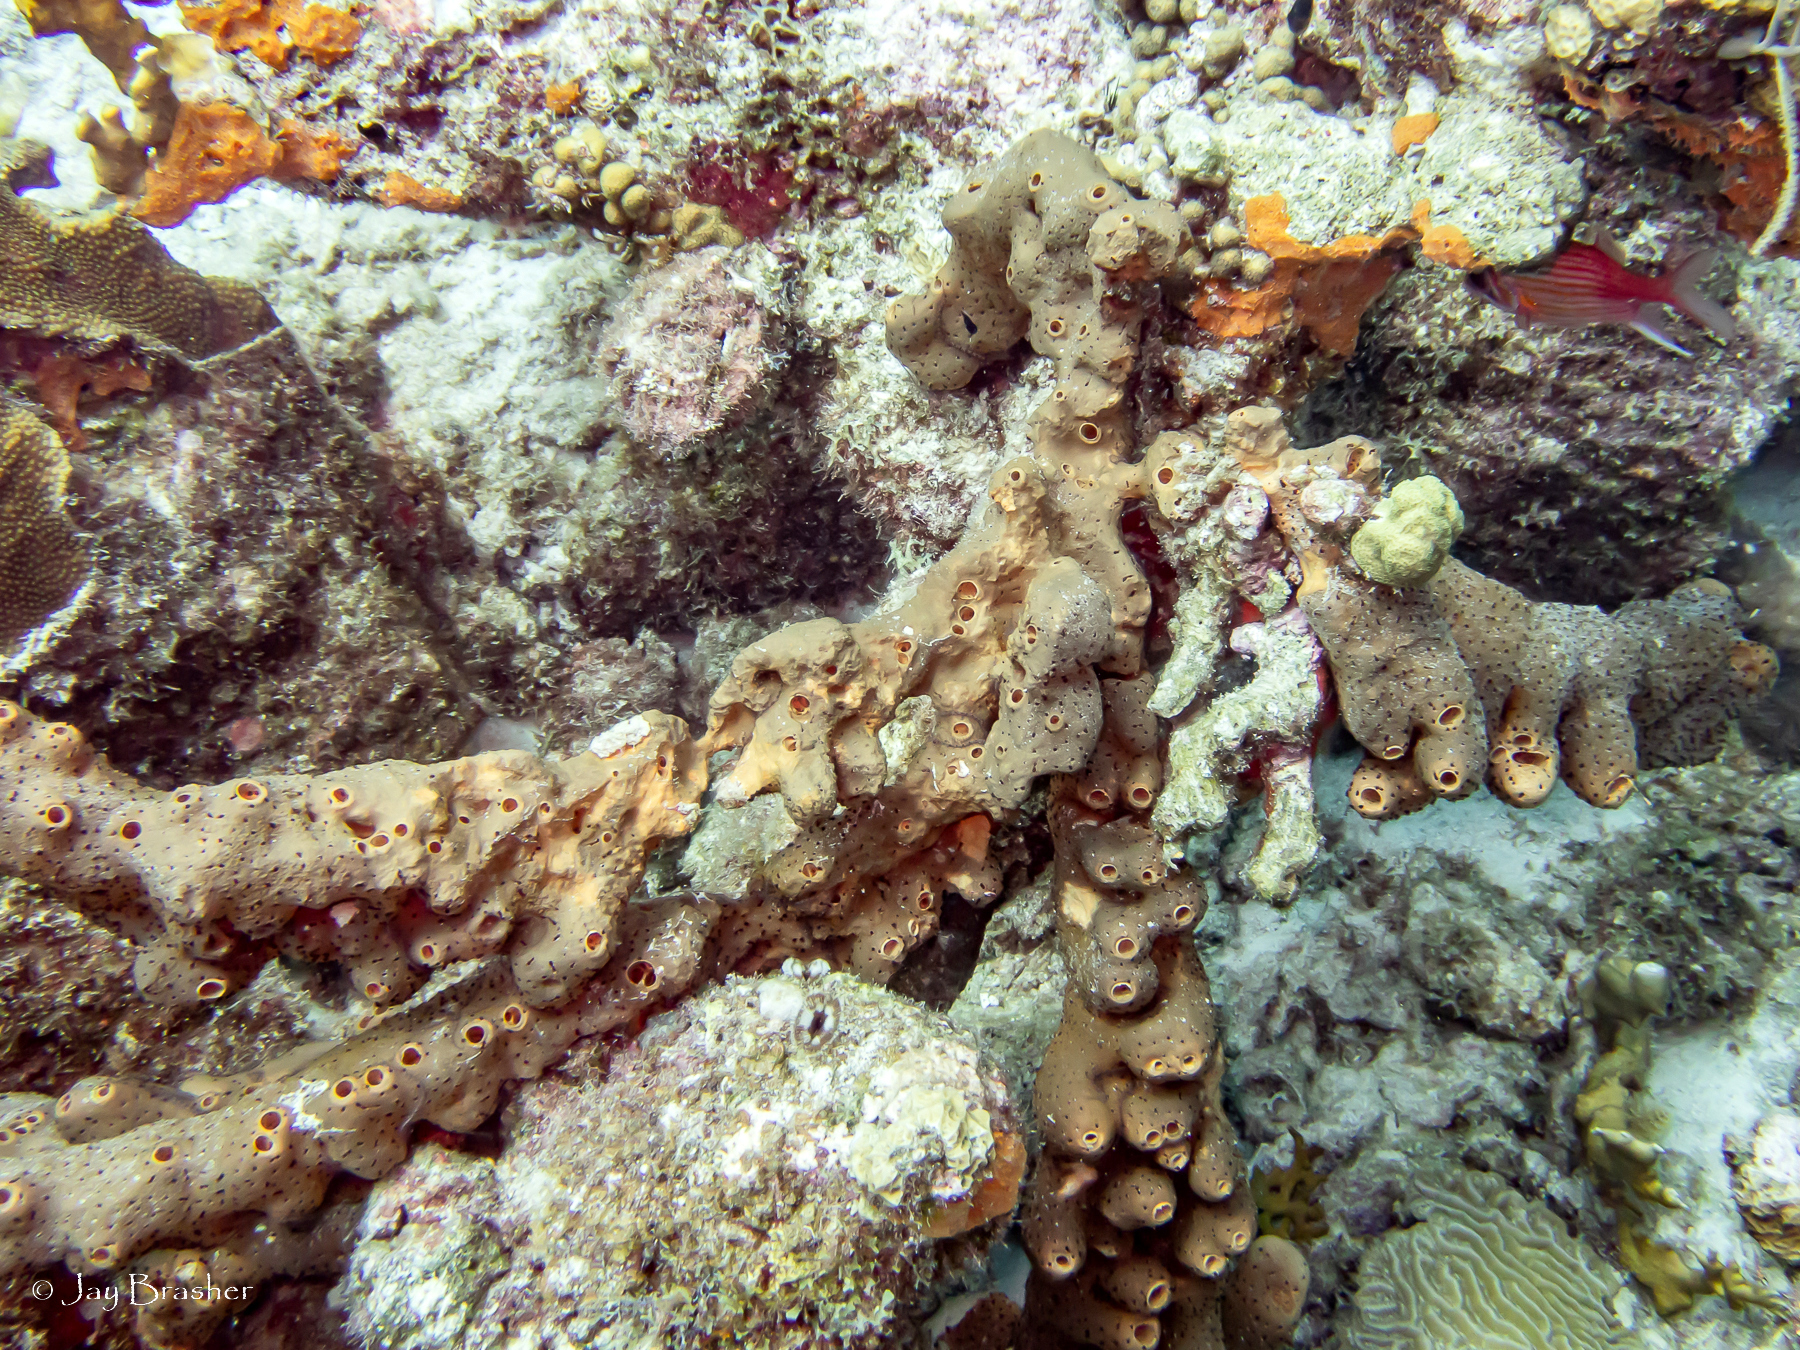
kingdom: Animalia
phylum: Porifera
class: Demospongiae
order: Agelasida
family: Agelasidae
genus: Agelas
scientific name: Agelas conifera
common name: Brown tube sponge
